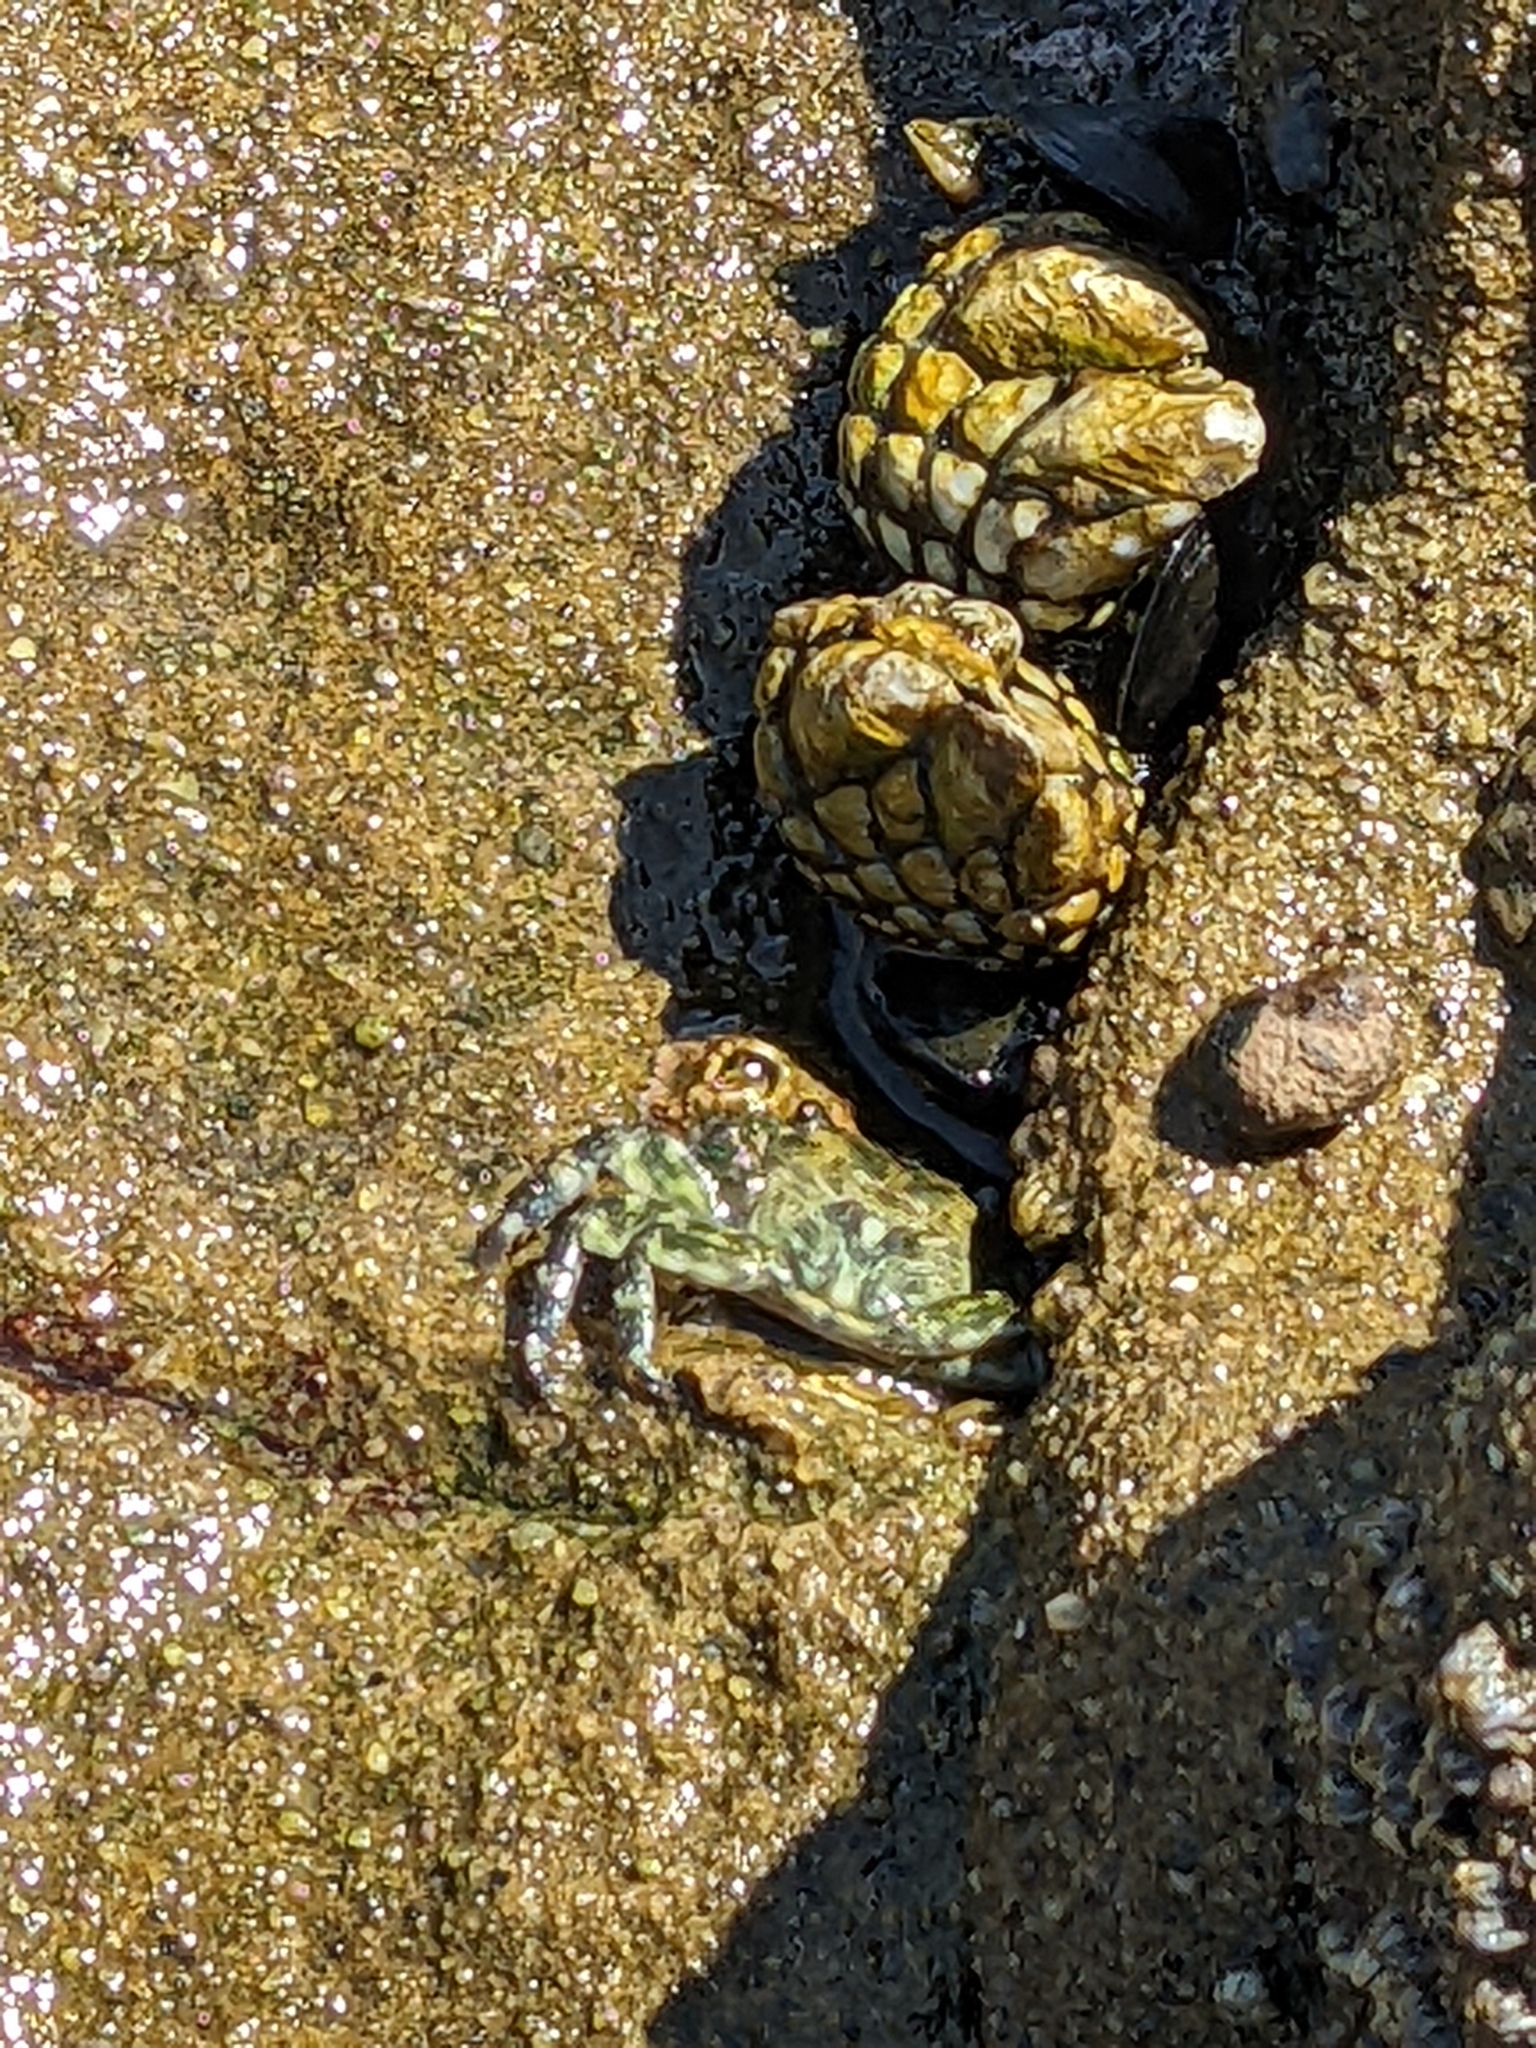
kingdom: Animalia
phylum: Arthropoda
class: Malacostraca
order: Decapoda
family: Grapsidae
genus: Pachygrapsus
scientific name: Pachygrapsus crassipes
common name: Striped shore crab
